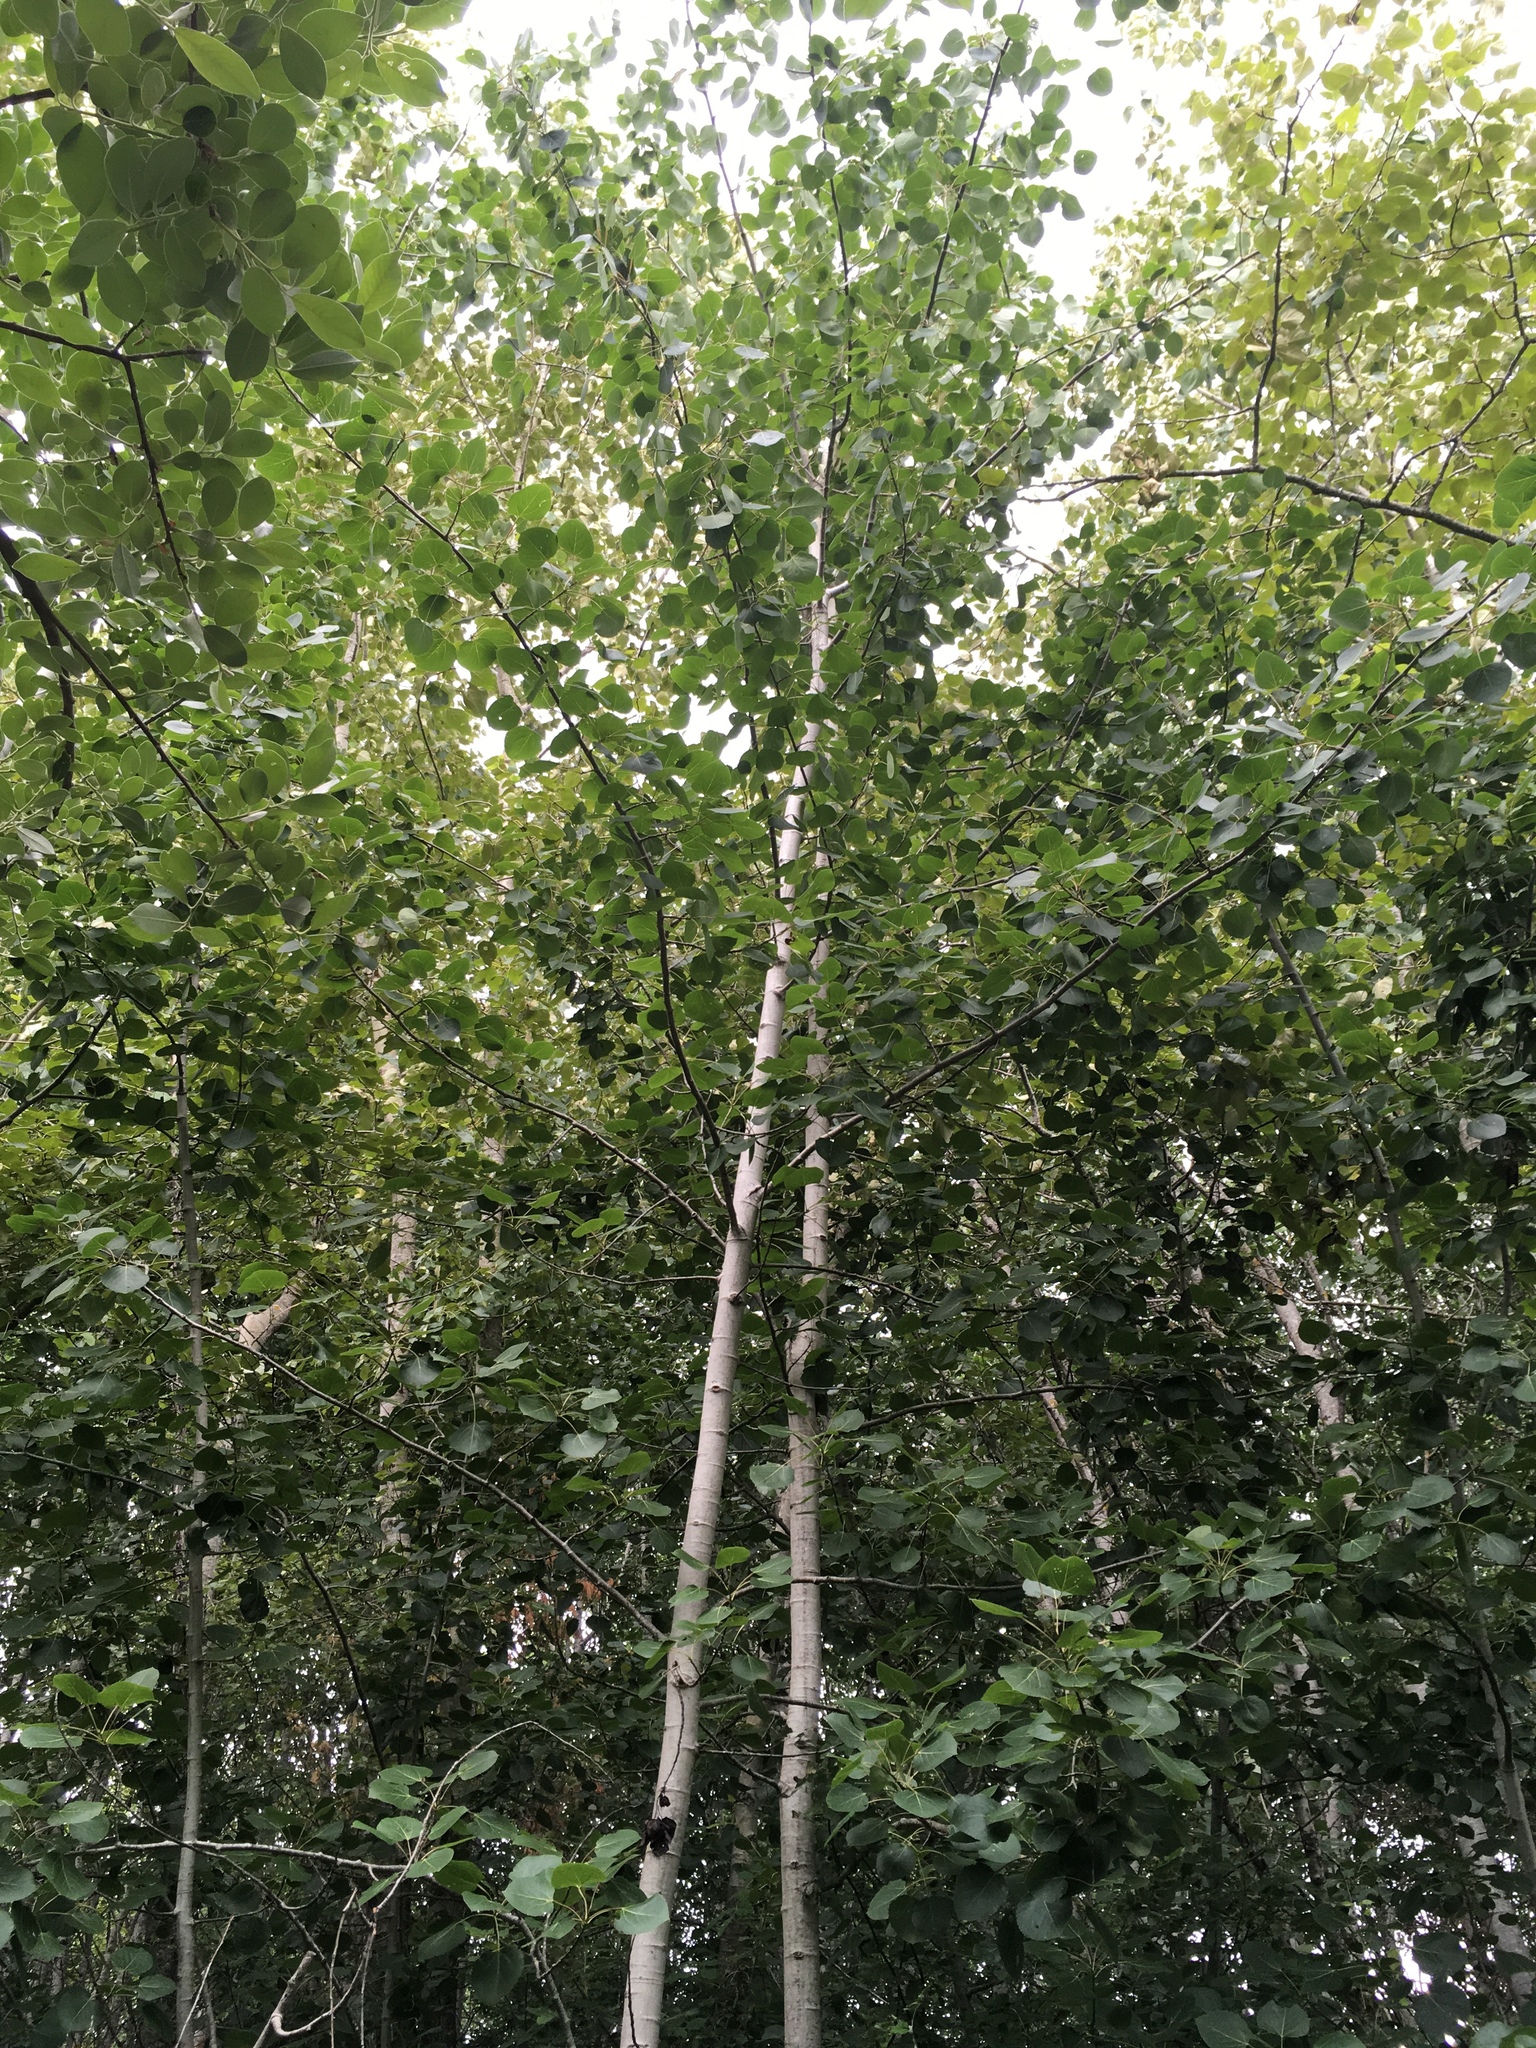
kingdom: Plantae
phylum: Tracheophyta
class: Magnoliopsida
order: Malpighiales
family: Salicaceae
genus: Populus
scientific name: Populus tremuloides
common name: Quaking aspen
